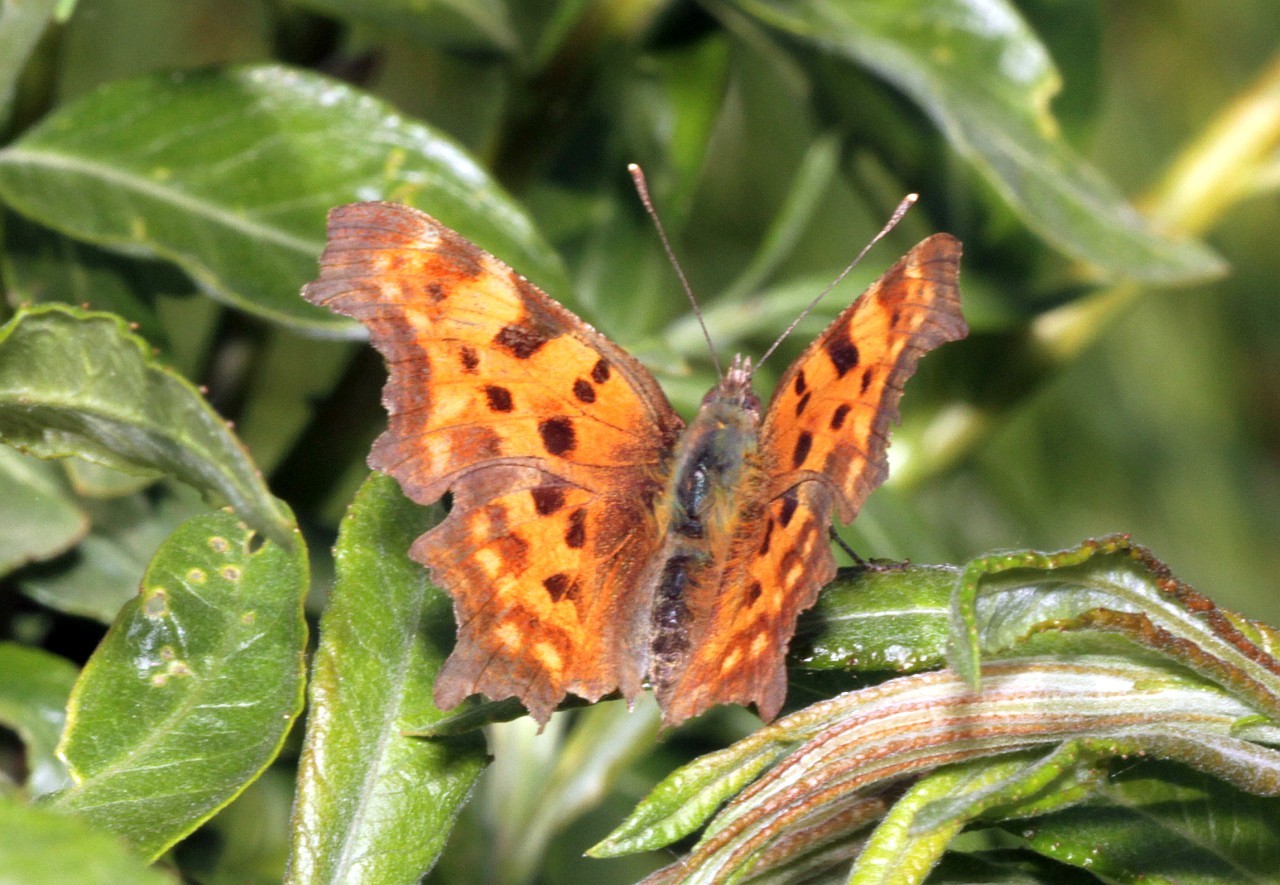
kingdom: Animalia
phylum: Arthropoda
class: Insecta
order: Lepidoptera
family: Nymphalidae
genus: Polygonia
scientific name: Polygonia c-album
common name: Comma
